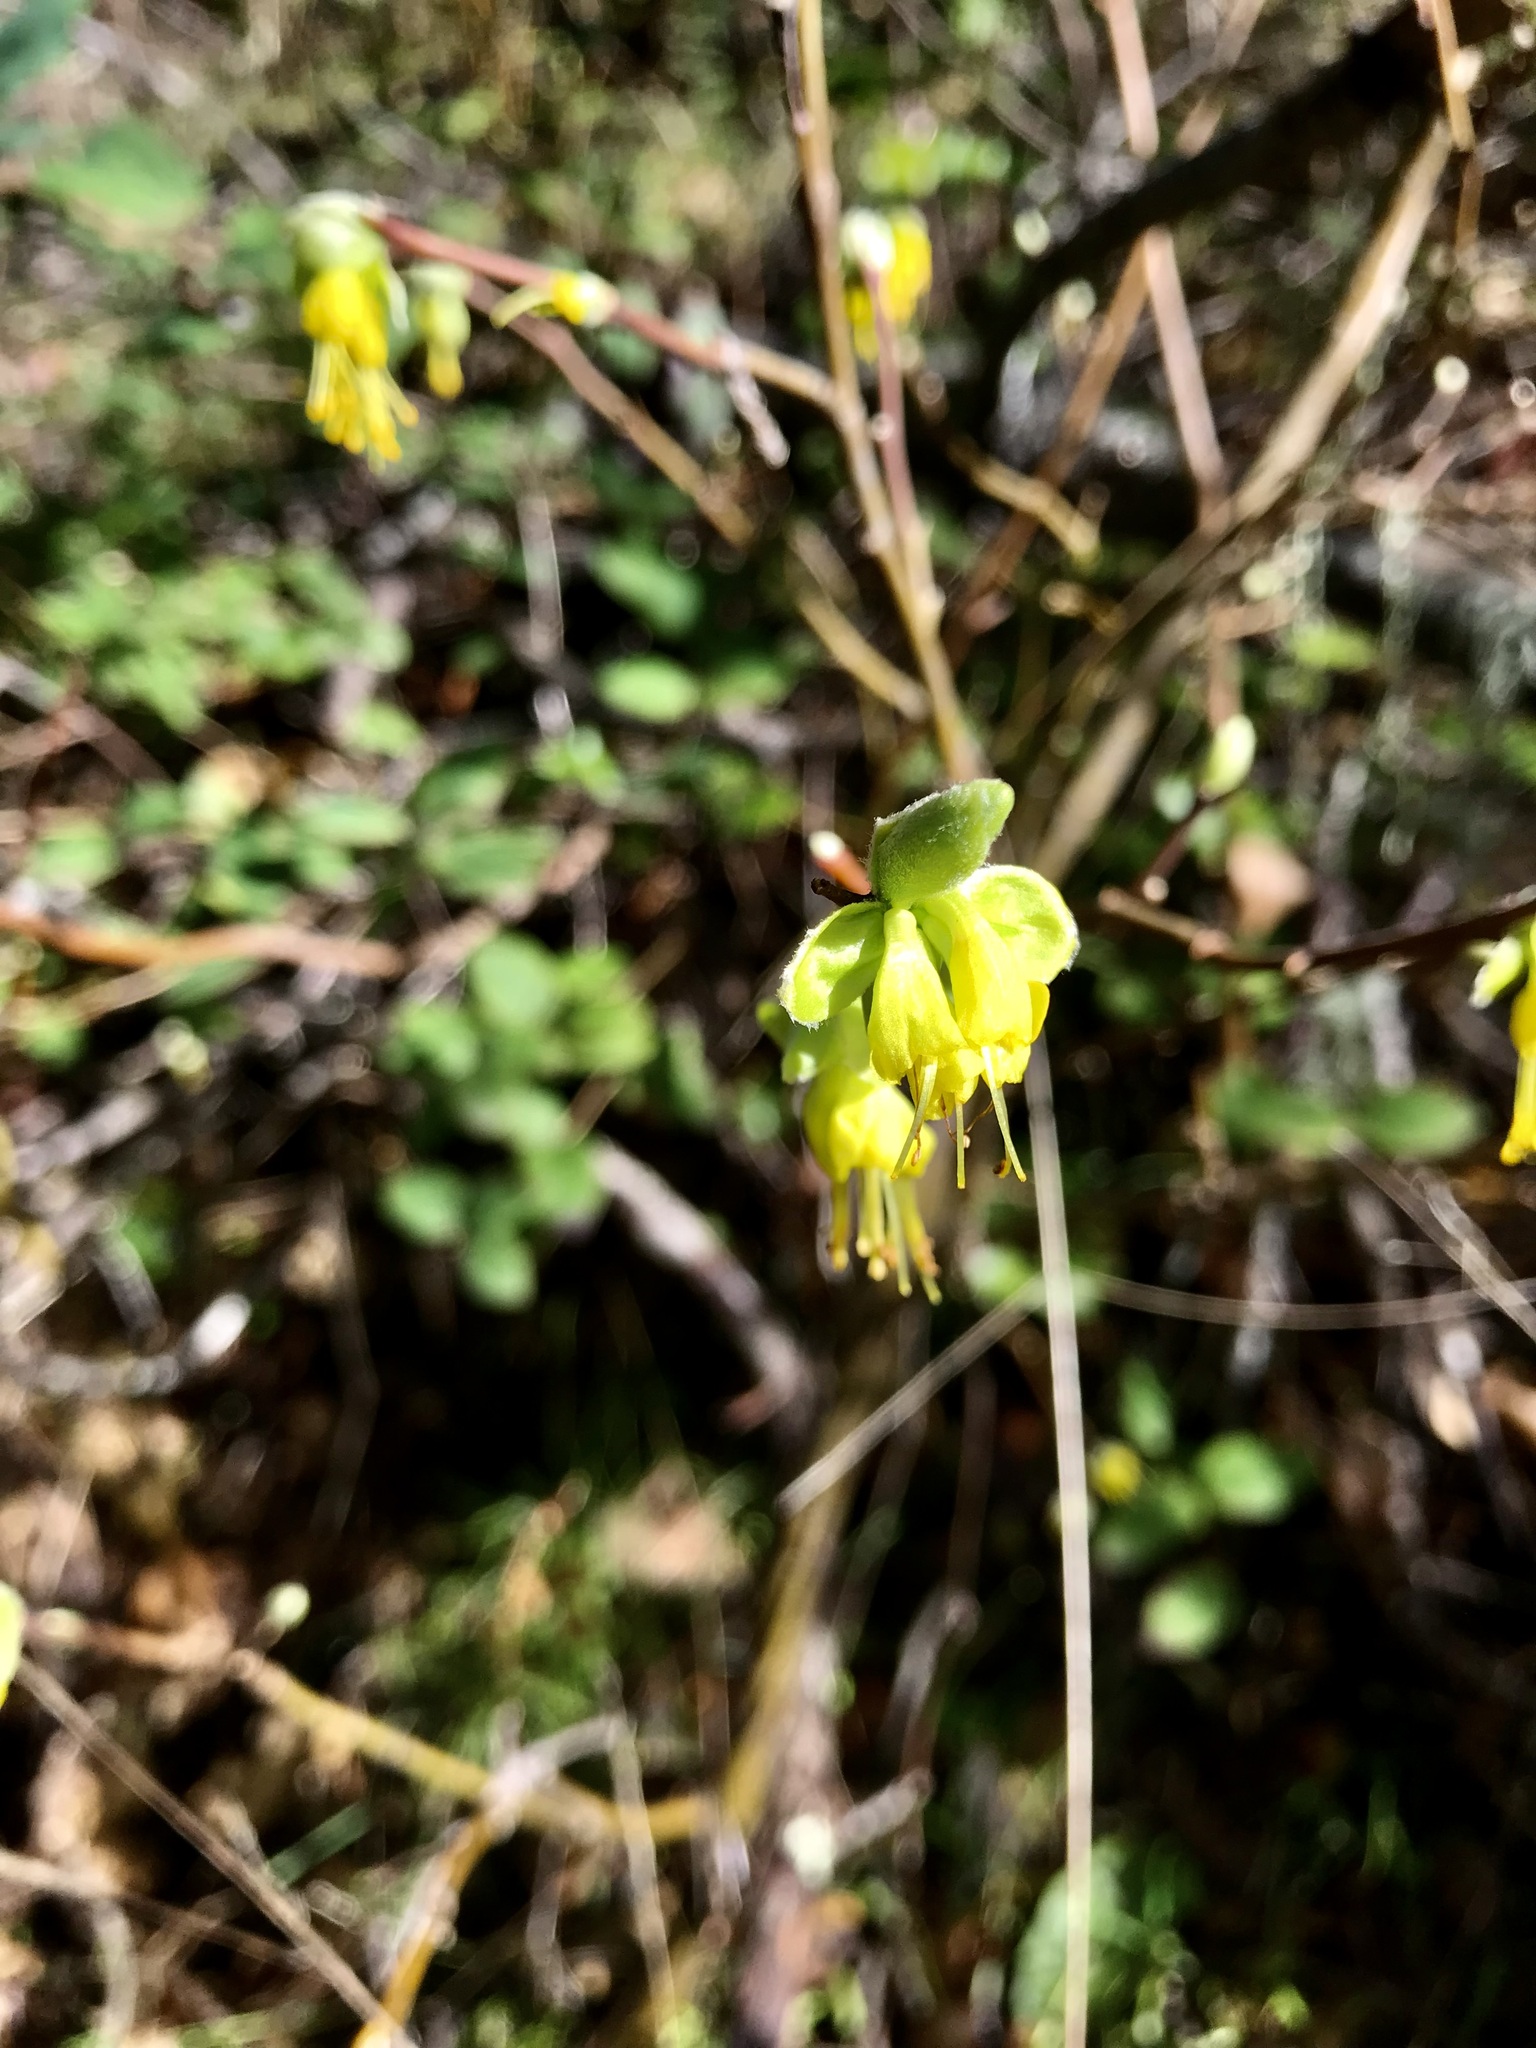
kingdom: Plantae
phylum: Tracheophyta
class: Magnoliopsida
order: Malvales
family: Thymelaeaceae
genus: Dirca
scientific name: Dirca occidentalis
